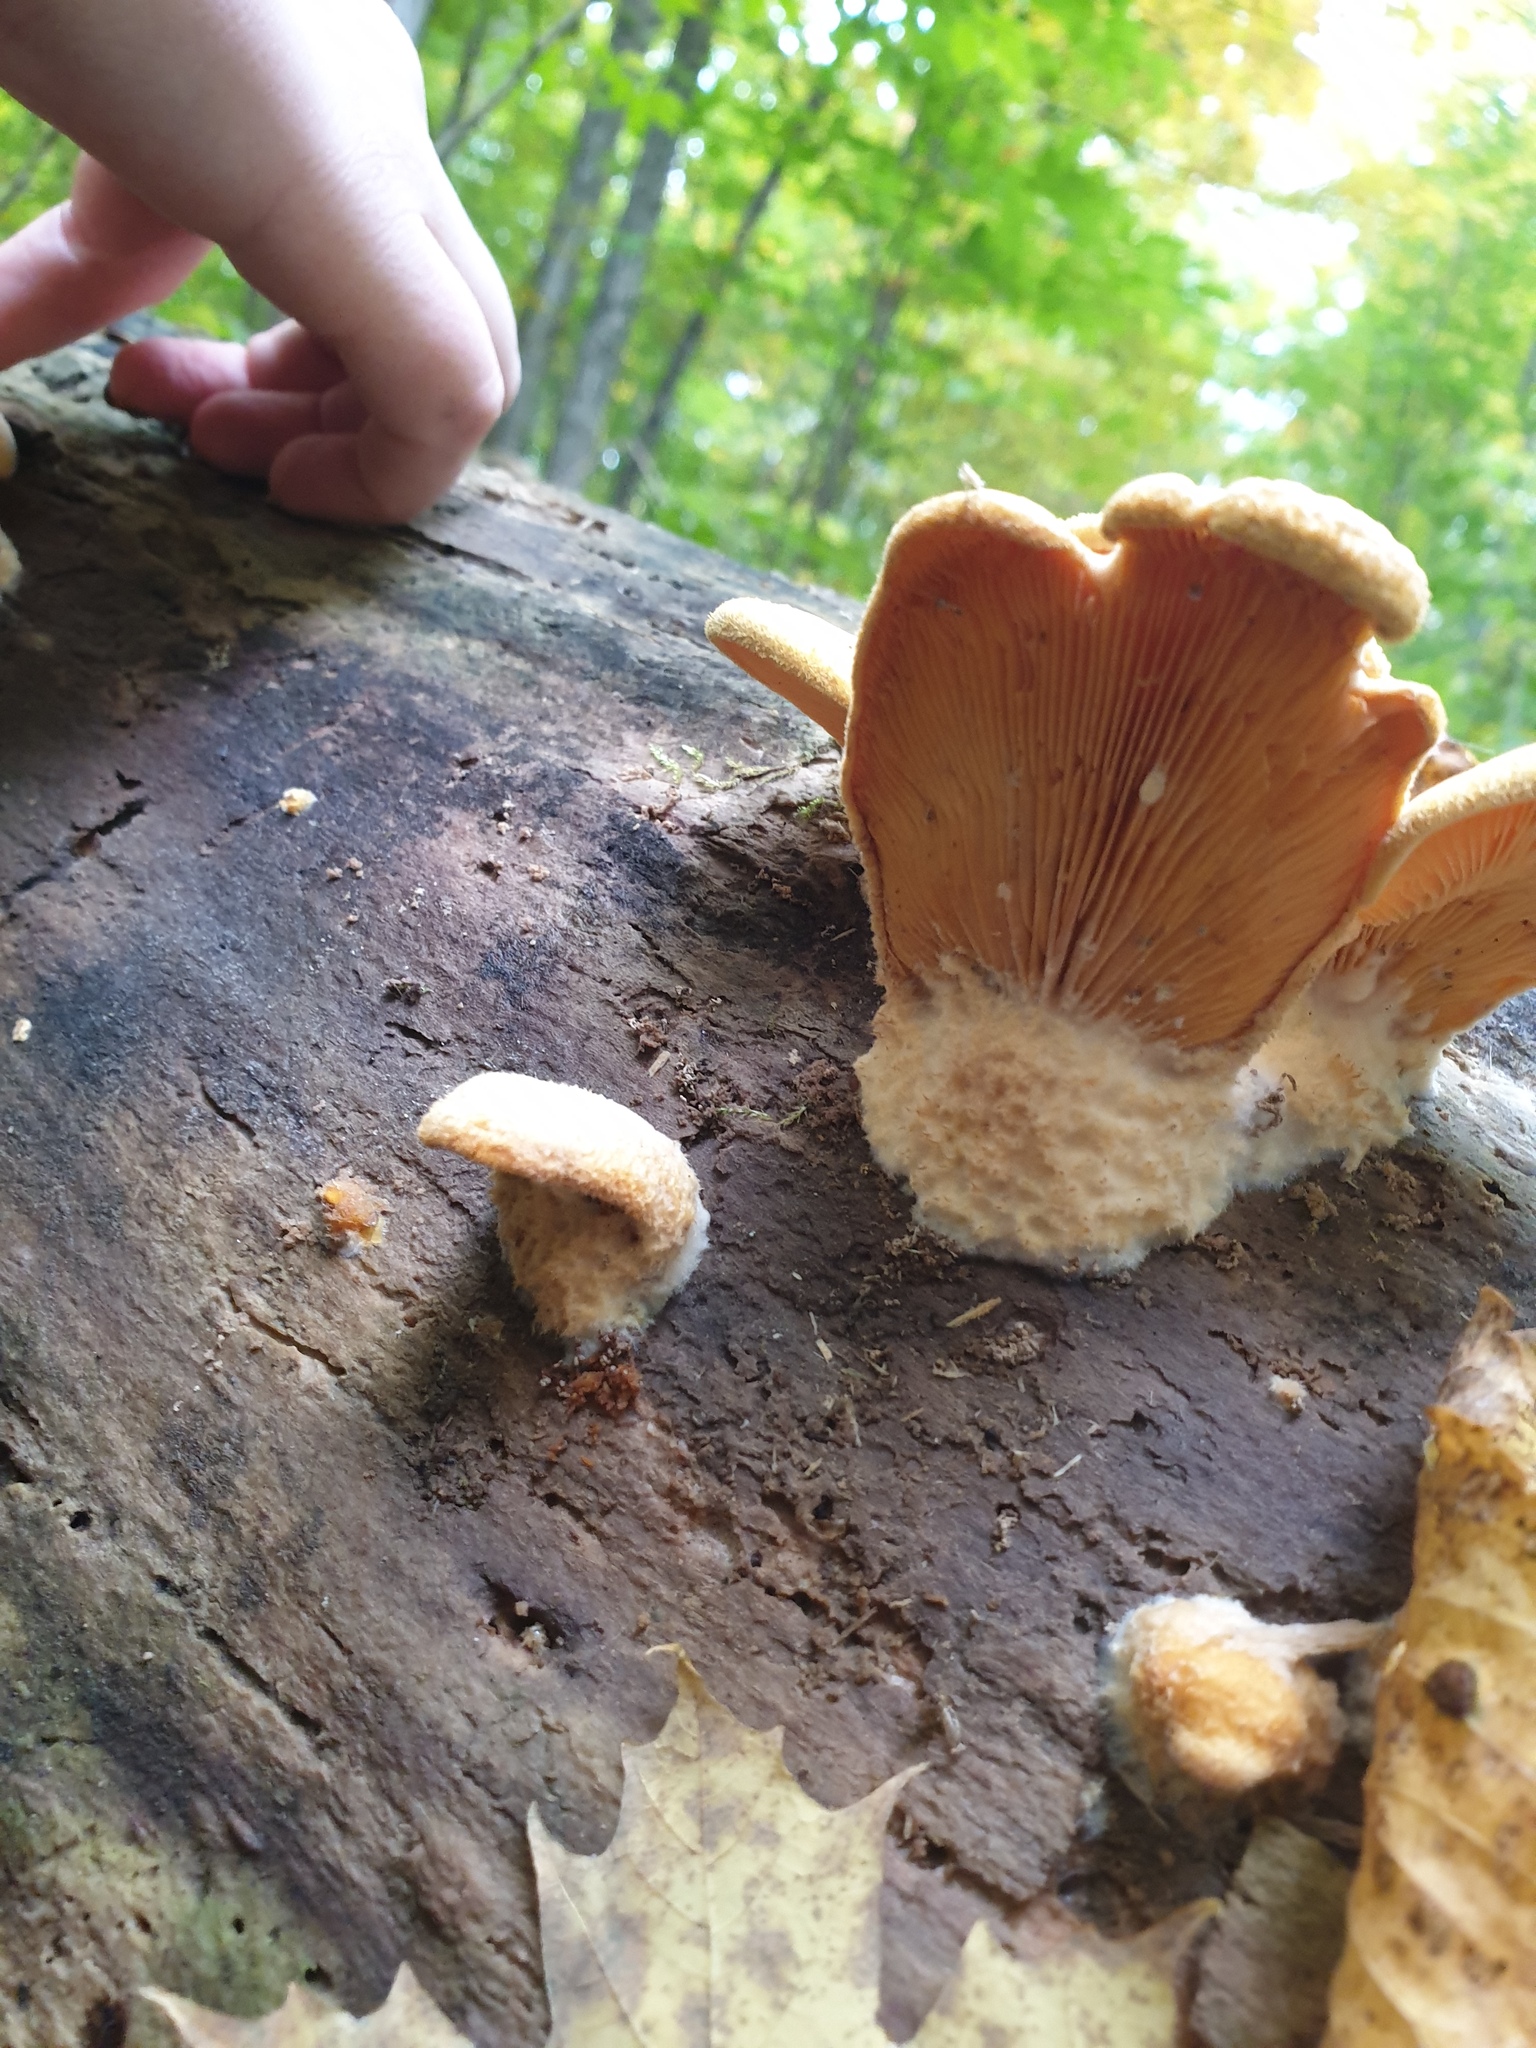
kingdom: Fungi
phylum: Basidiomycota
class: Agaricomycetes
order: Agaricales
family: Phyllotopsidaceae
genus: Phyllotopsis
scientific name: Phyllotopsis nidulans
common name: Orange mock oyster
